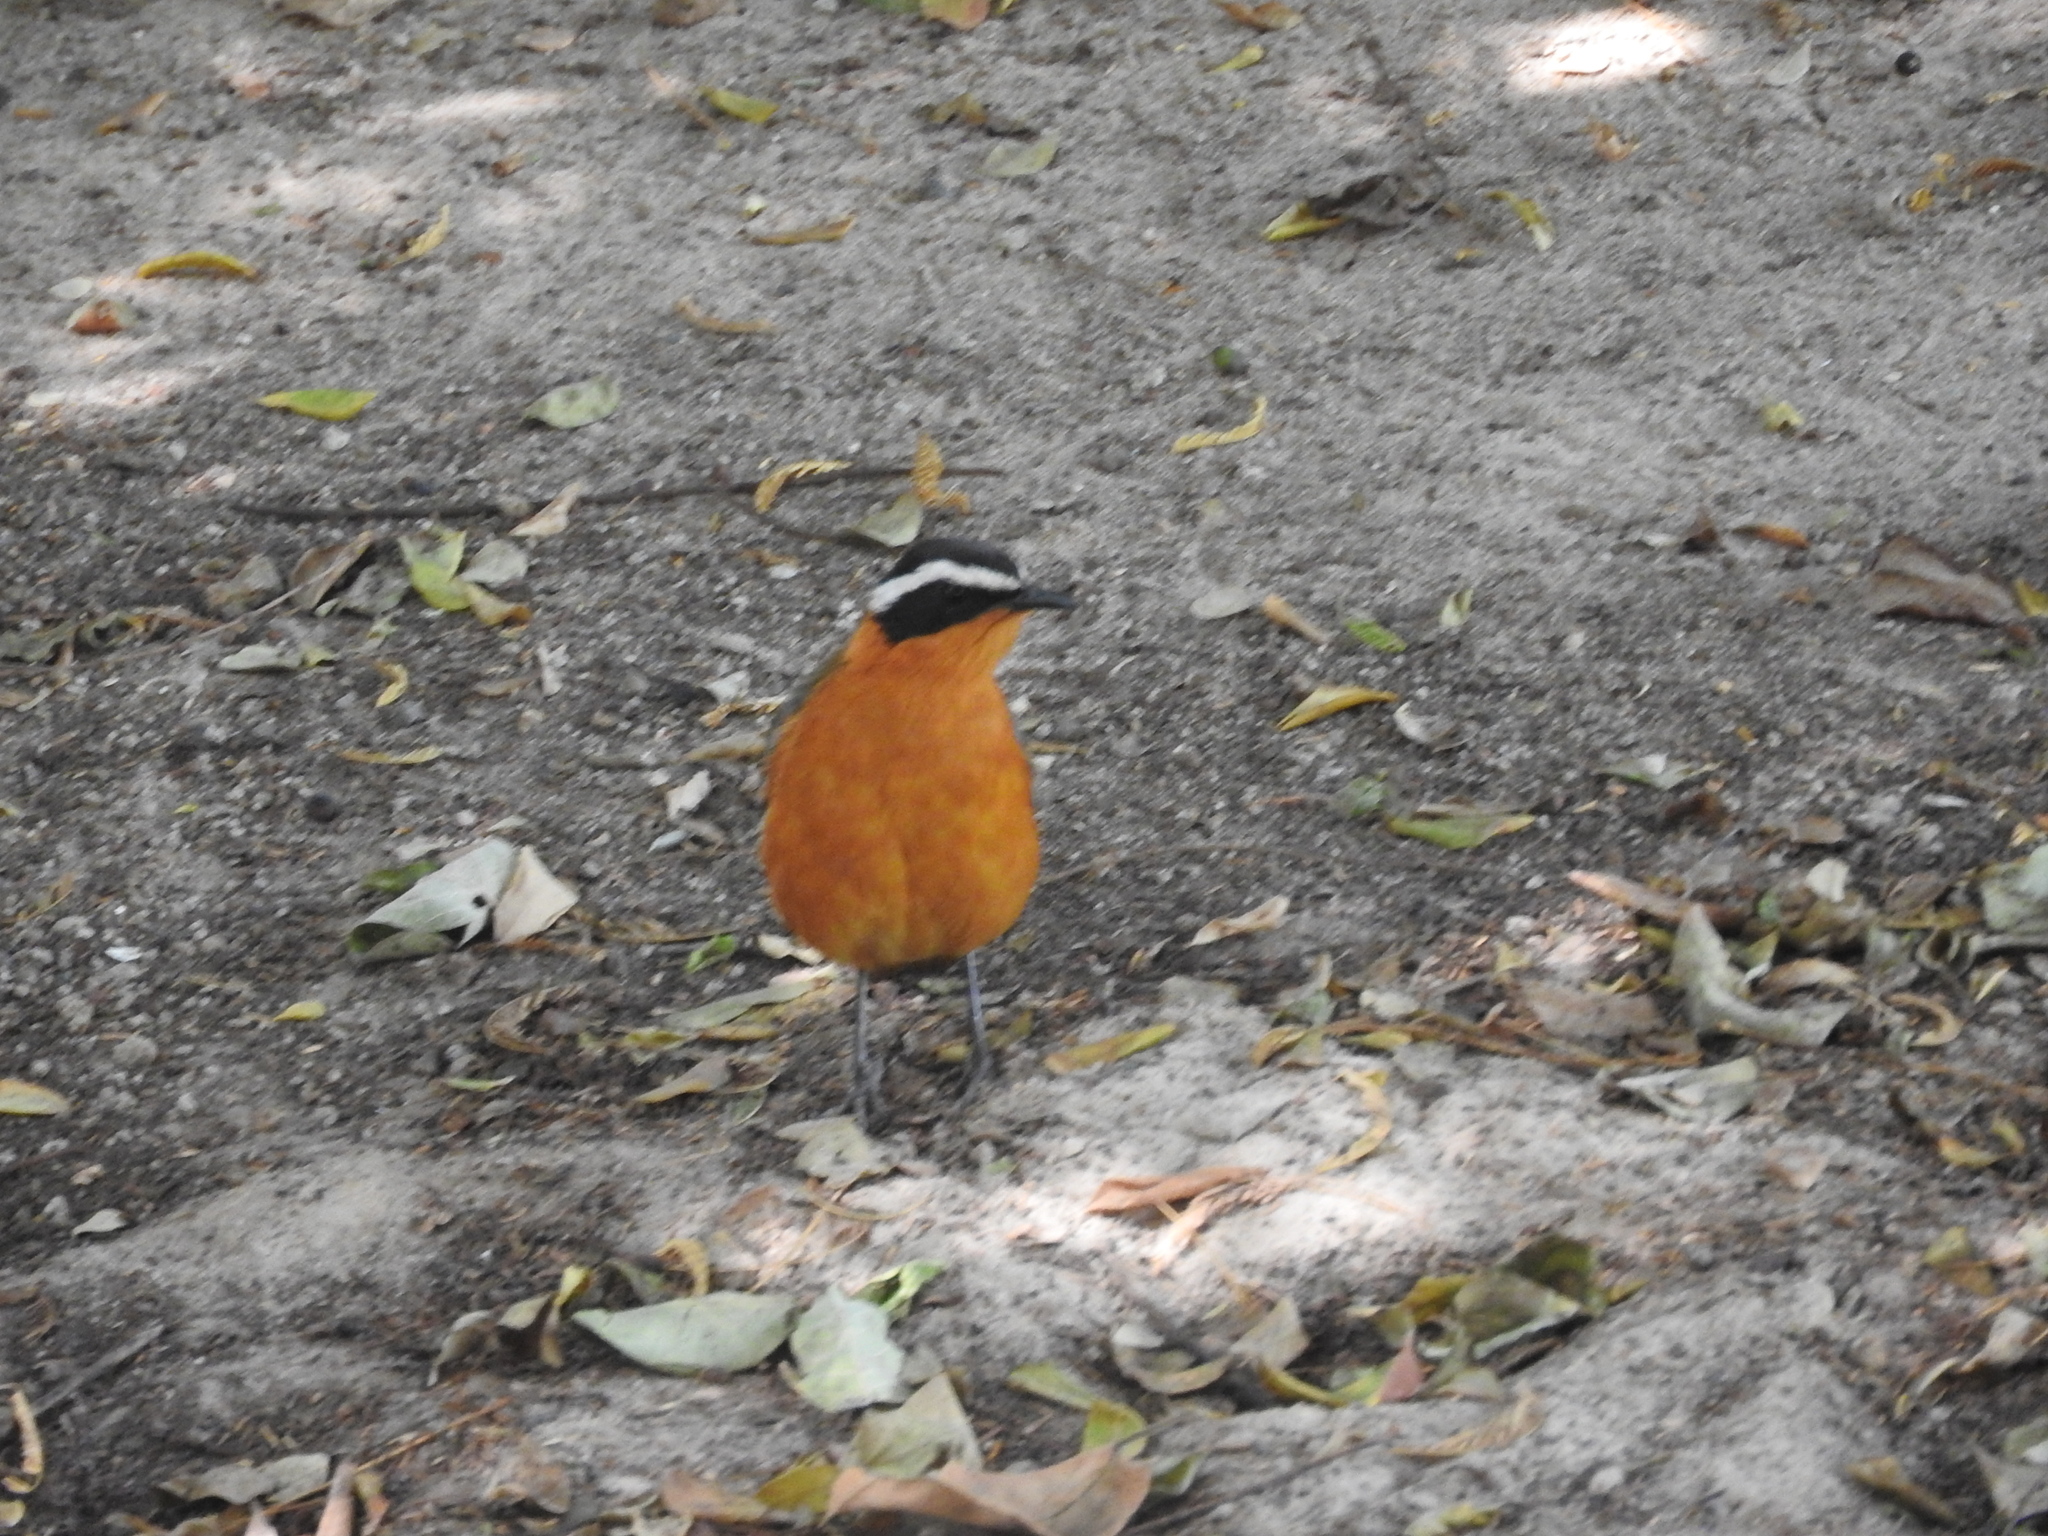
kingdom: Animalia
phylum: Chordata
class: Aves
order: Passeriformes
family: Muscicapidae
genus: Cossypha
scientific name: Cossypha heuglini
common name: White-browed robin-chat
